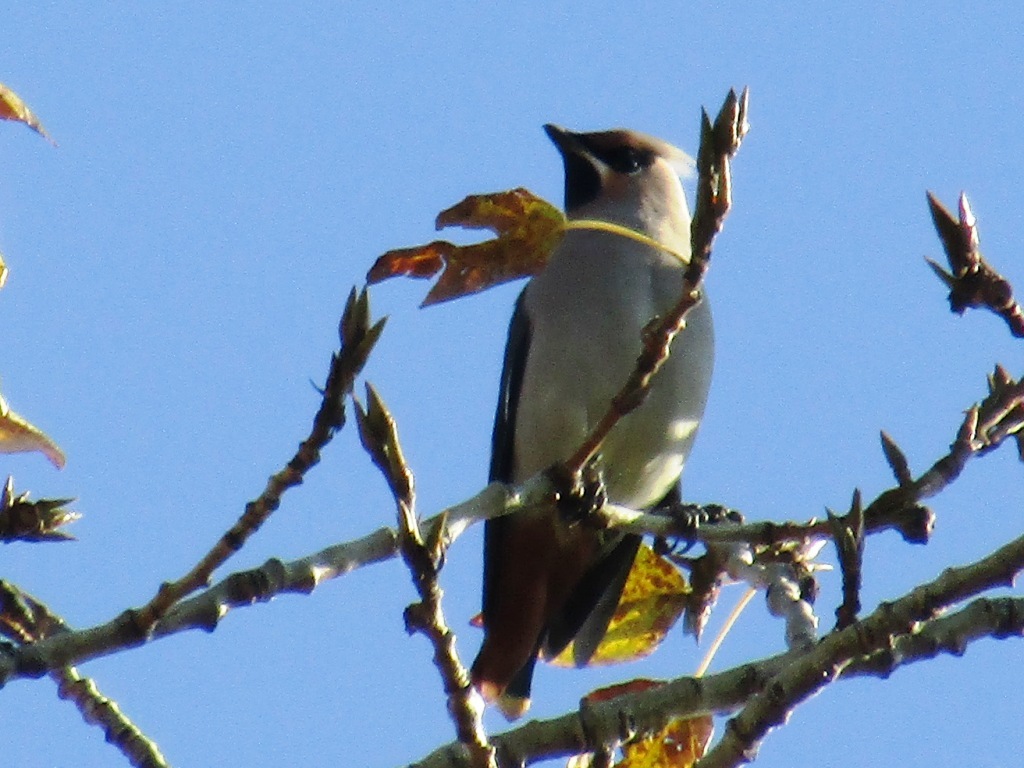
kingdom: Animalia
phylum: Chordata
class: Aves
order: Passeriformes
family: Bombycillidae
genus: Bombycilla
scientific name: Bombycilla garrulus
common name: Bohemian waxwing
